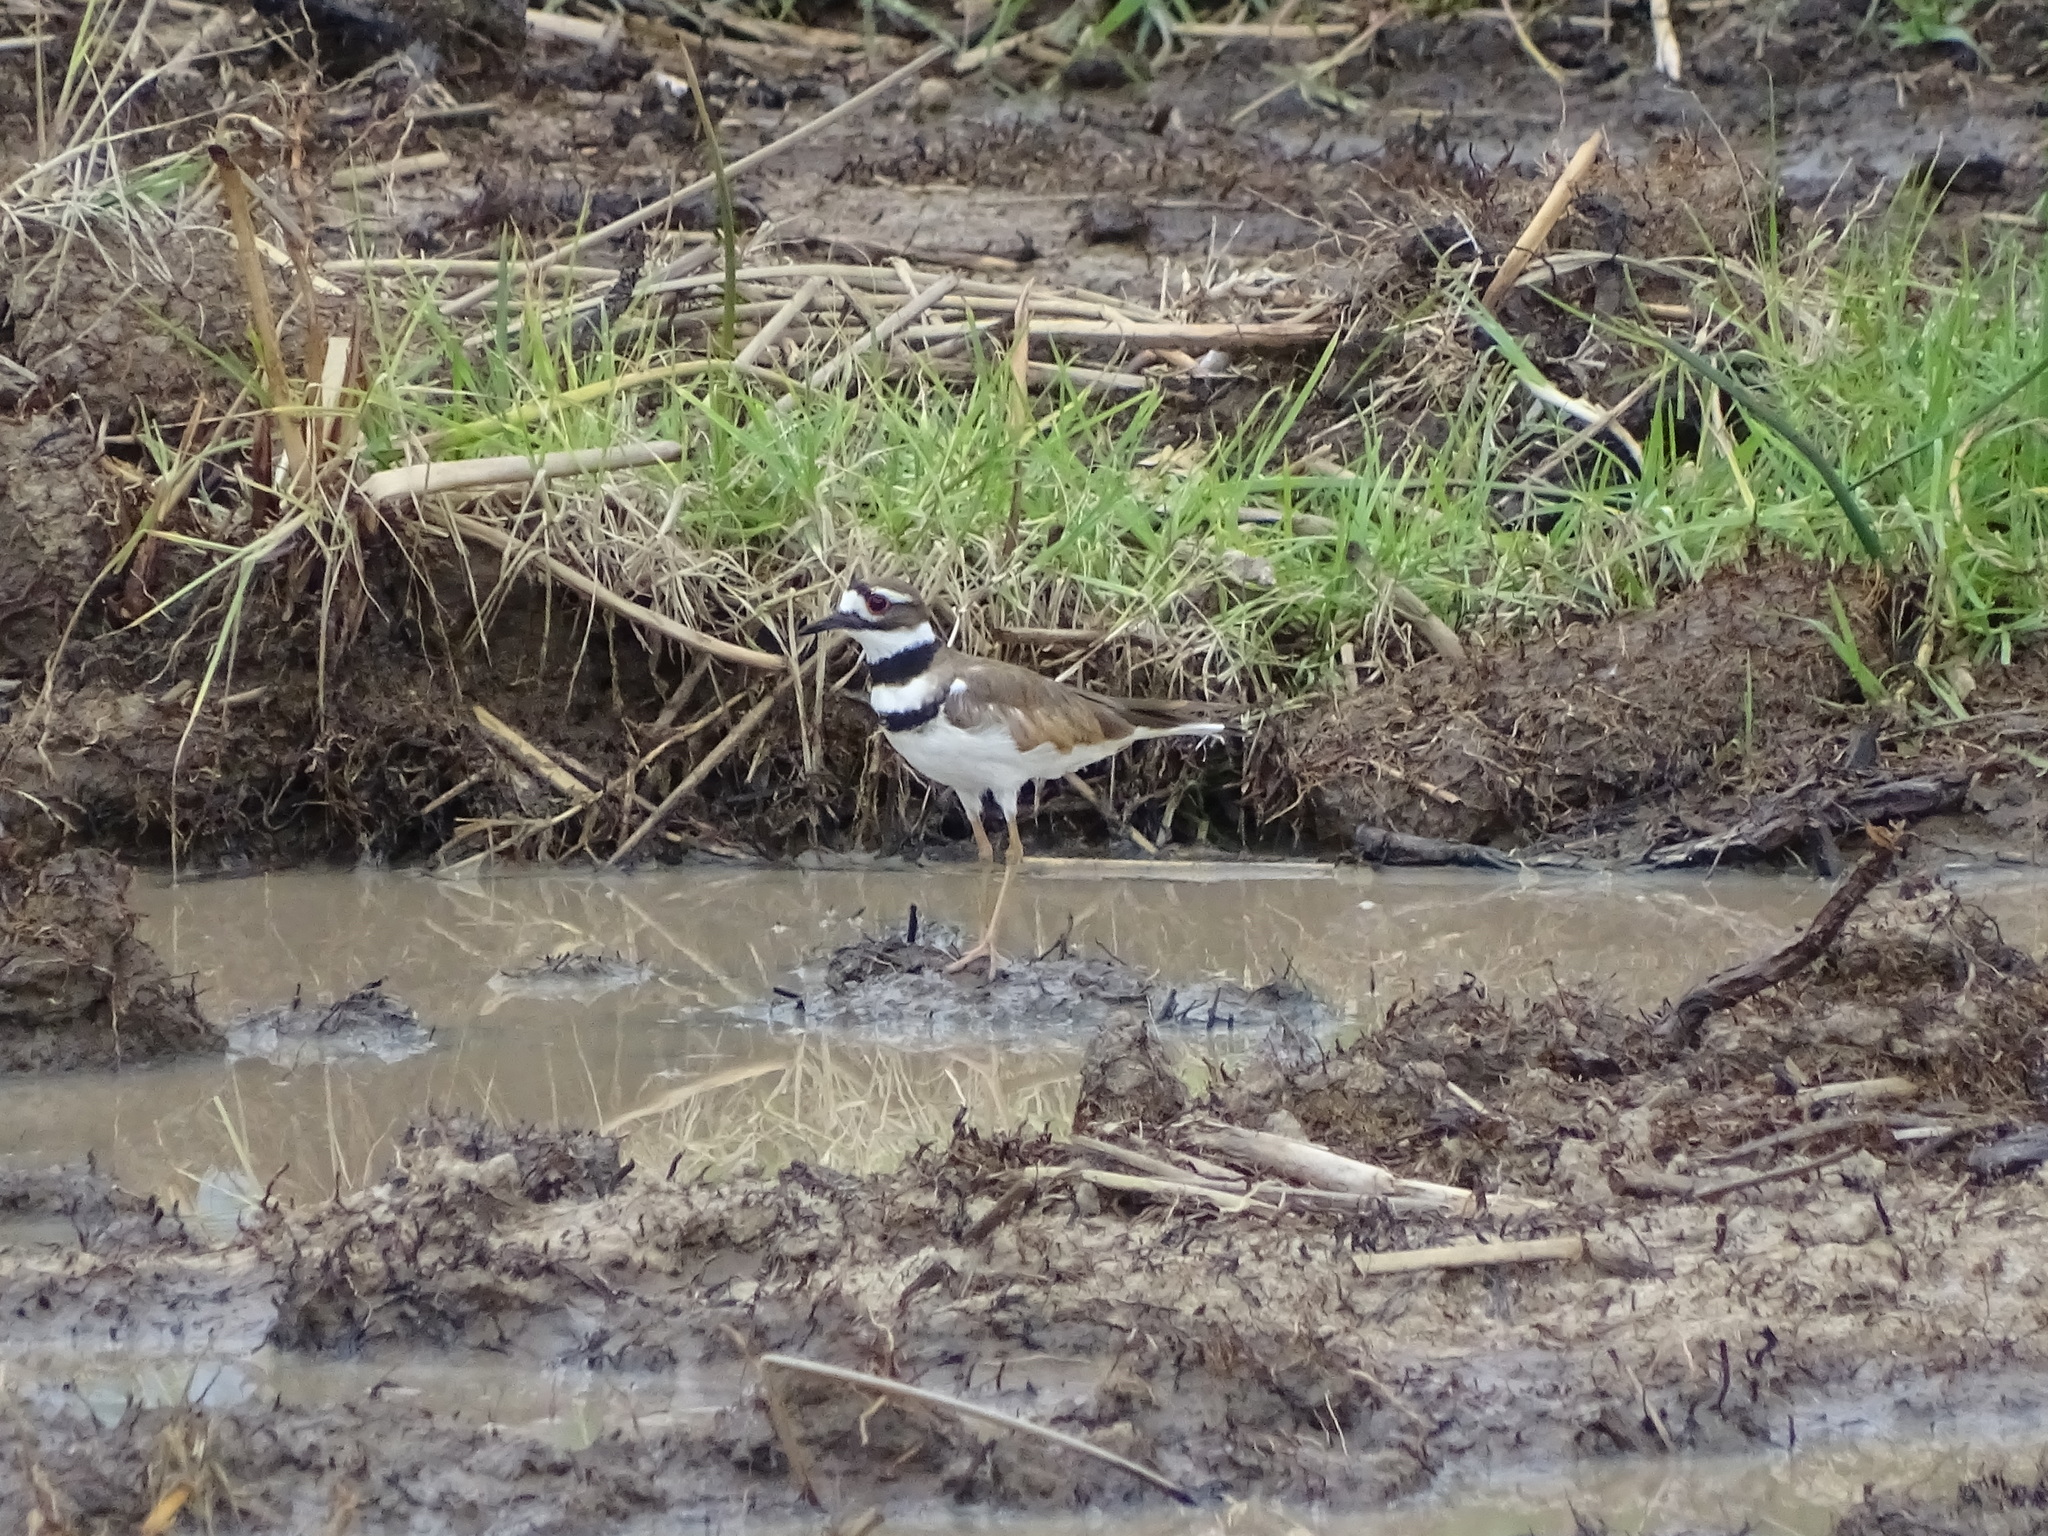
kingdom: Animalia
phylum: Chordata
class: Aves
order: Charadriiformes
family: Charadriidae
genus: Charadrius
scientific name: Charadrius vociferus
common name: Killdeer
